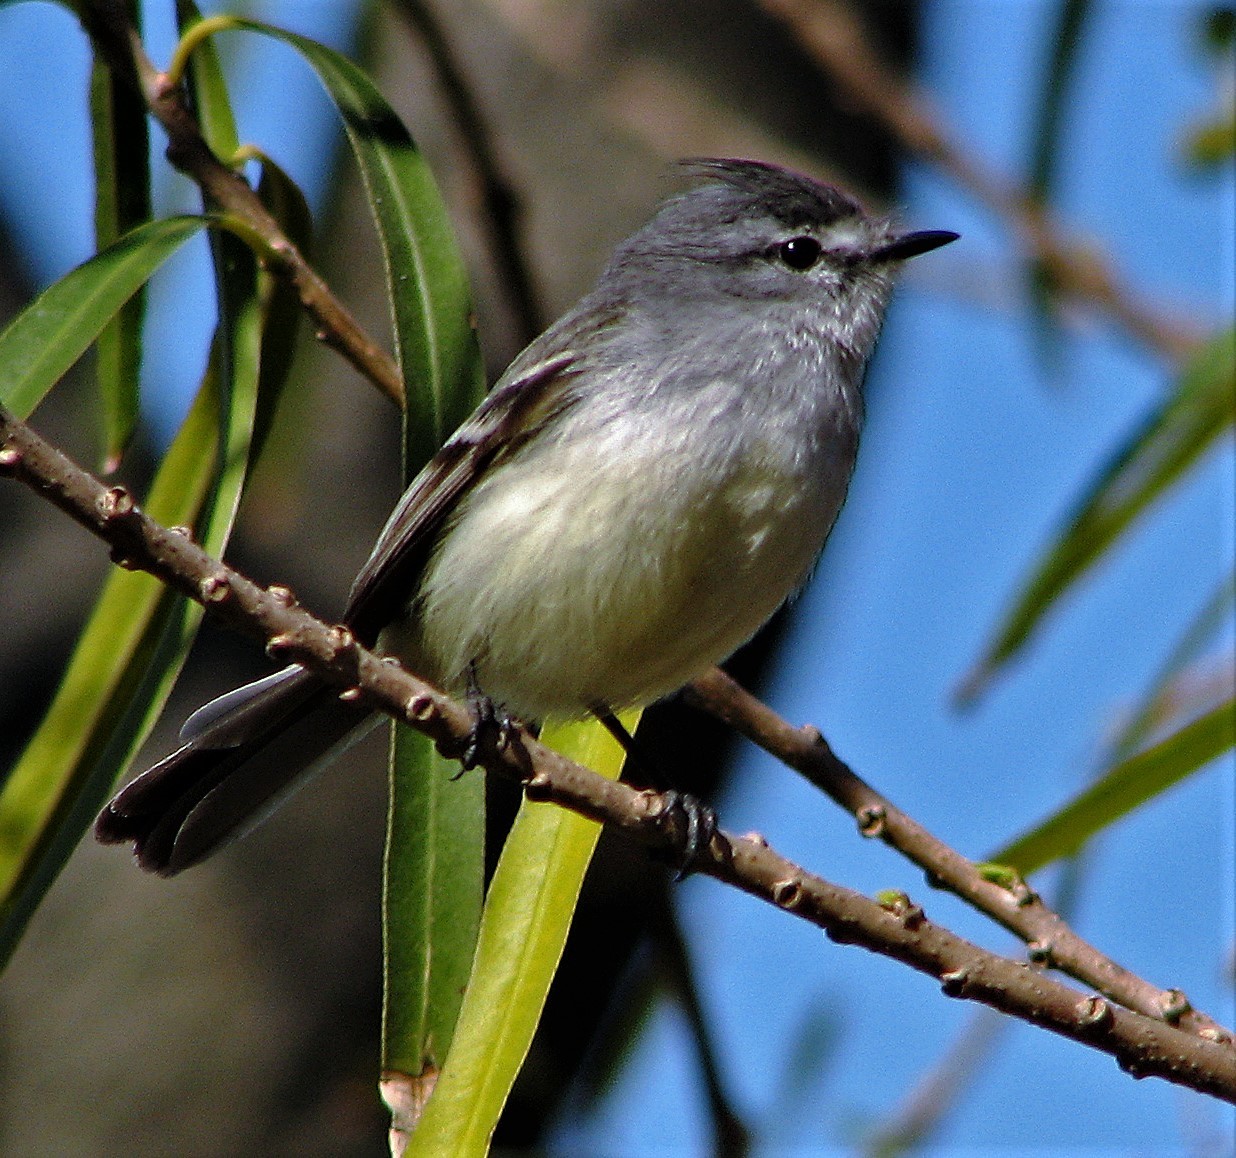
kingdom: Animalia
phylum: Chordata
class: Aves
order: Passeriformes
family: Tyrannidae
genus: Serpophaga
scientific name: Serpophaga griseicapilla
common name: Straneck's tyrannulet
